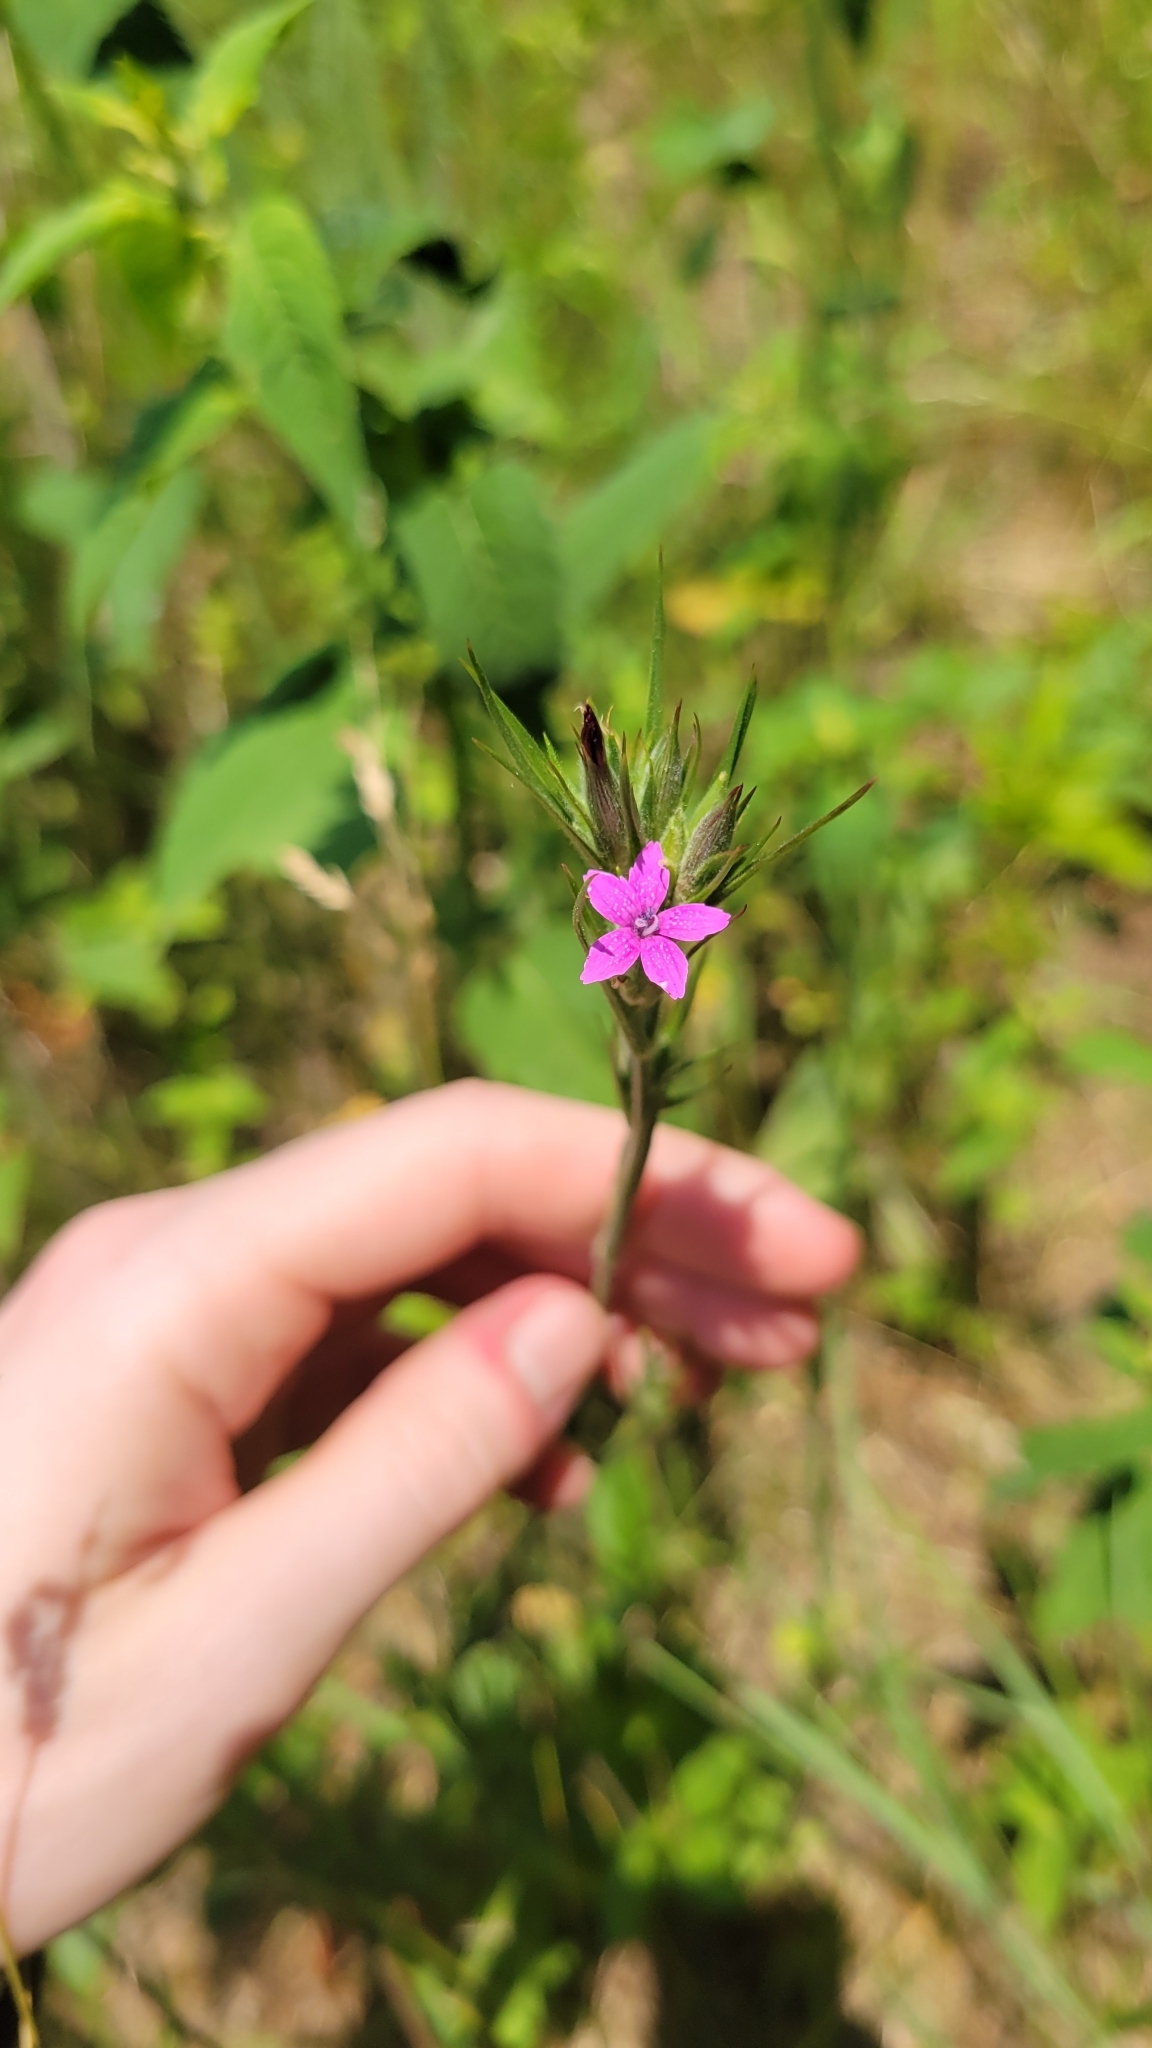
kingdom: Plantae
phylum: Tracheophyta
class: Magnoliopsida
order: Caryophyllales
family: Caryophyllaceae
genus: Dianthus
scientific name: Dianthus armeria
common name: Deptford pink
